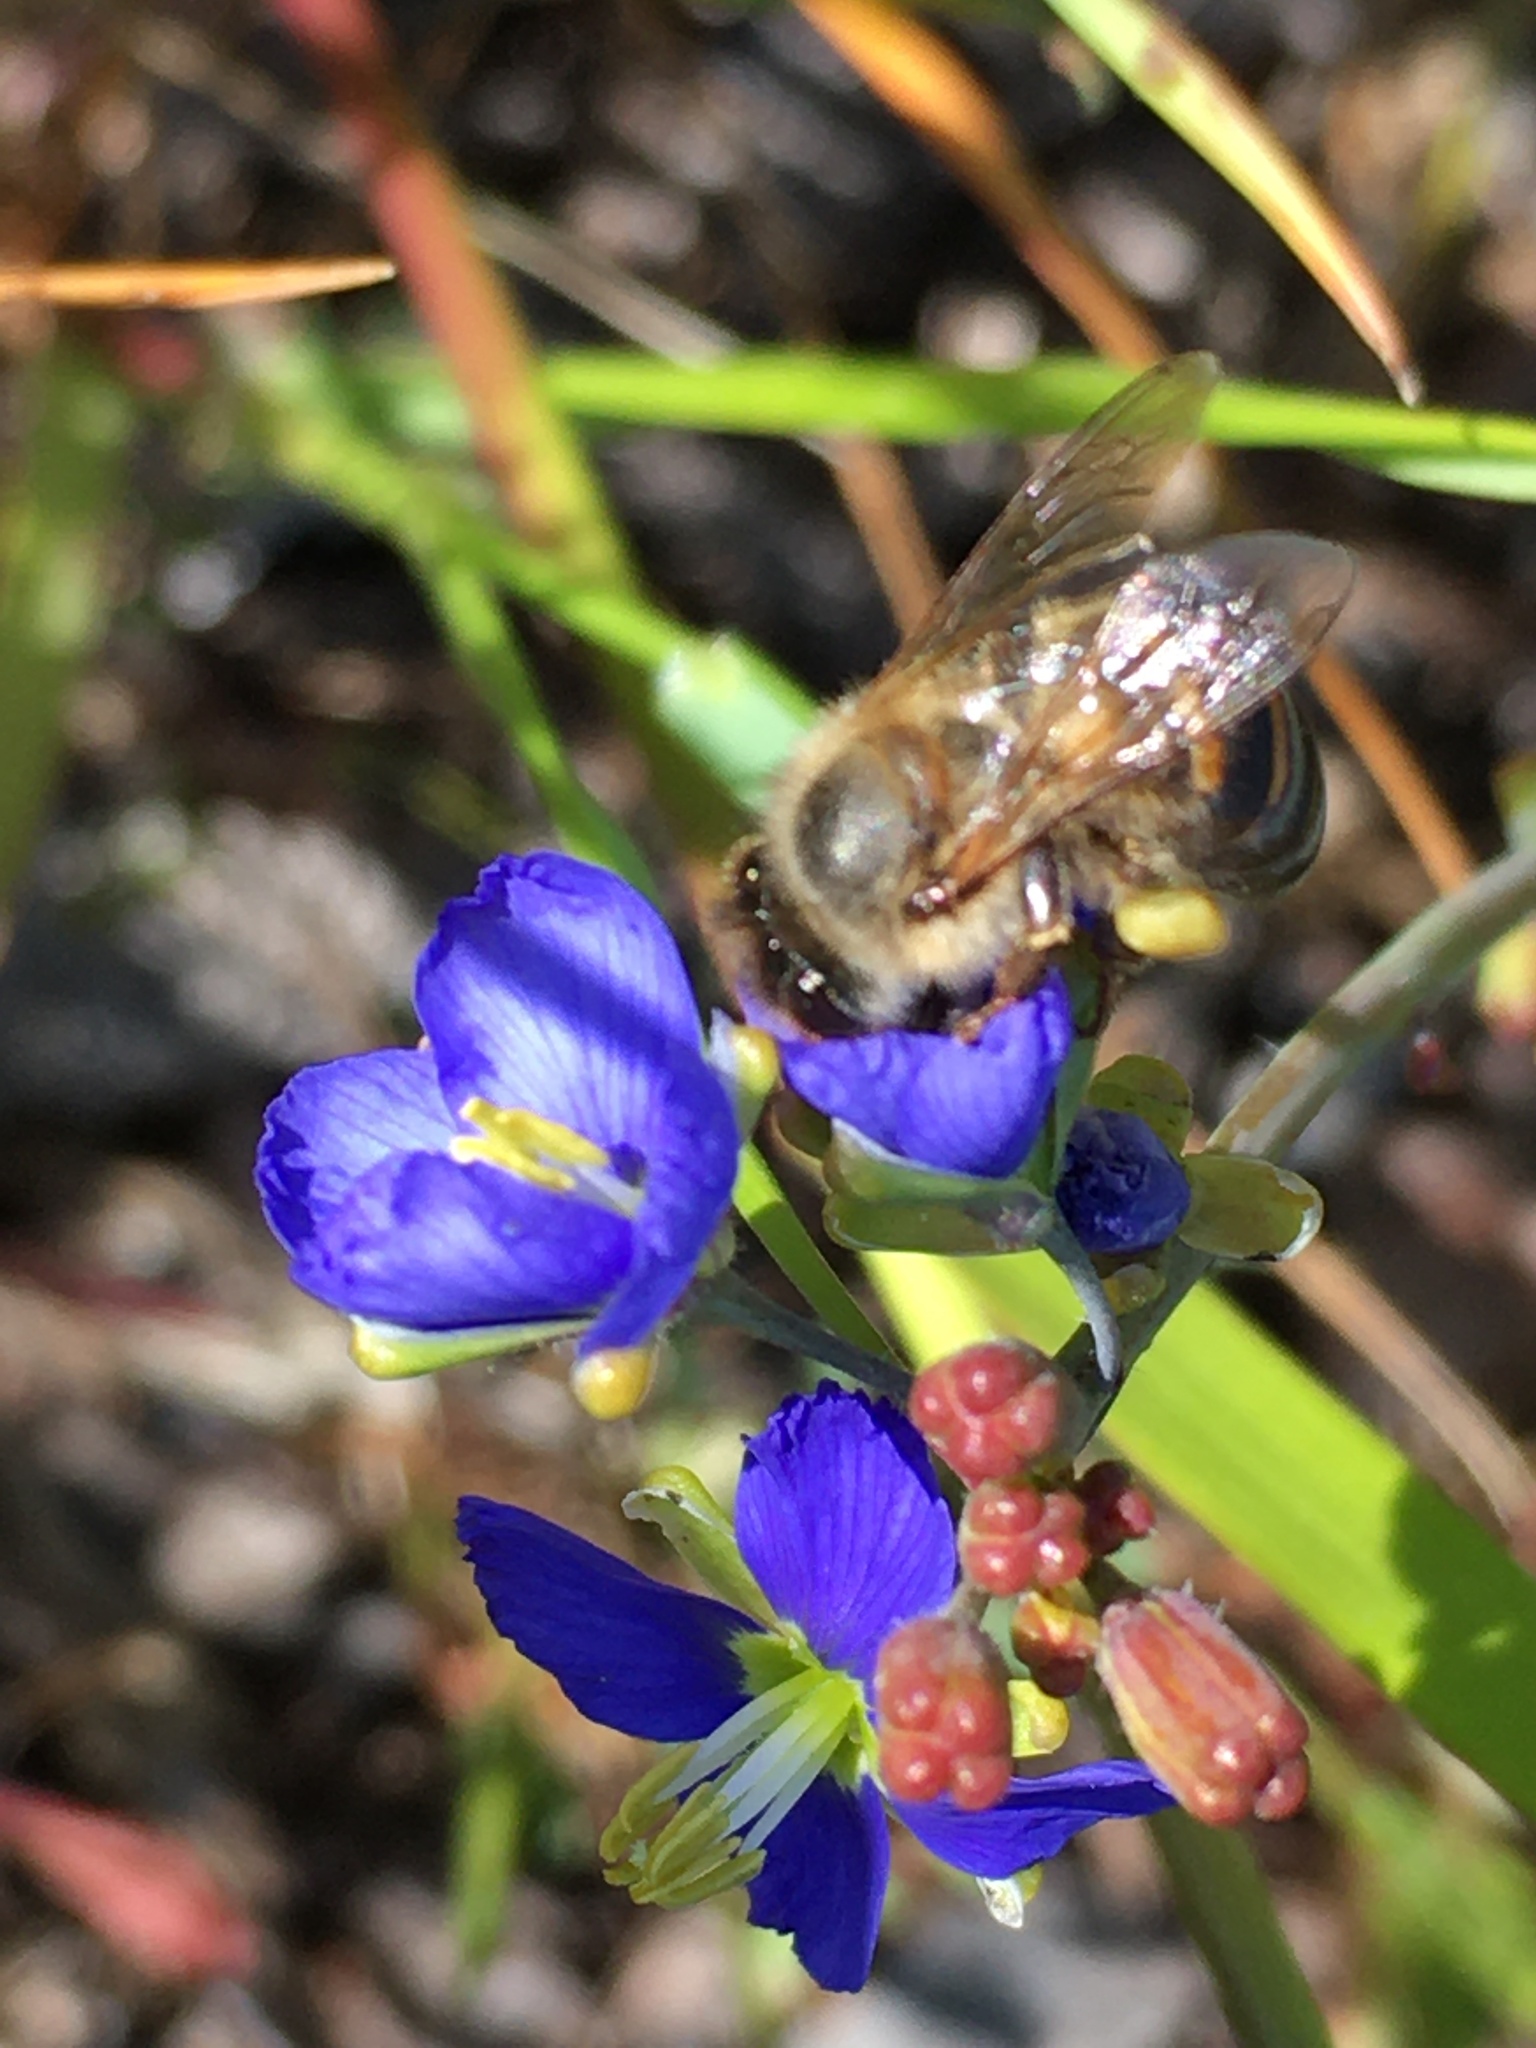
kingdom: Plantae
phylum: Tracheophyta
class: Magnoliopsida
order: Brassicales
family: Brassicaceae
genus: Heliophila
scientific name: Heliophila africana
